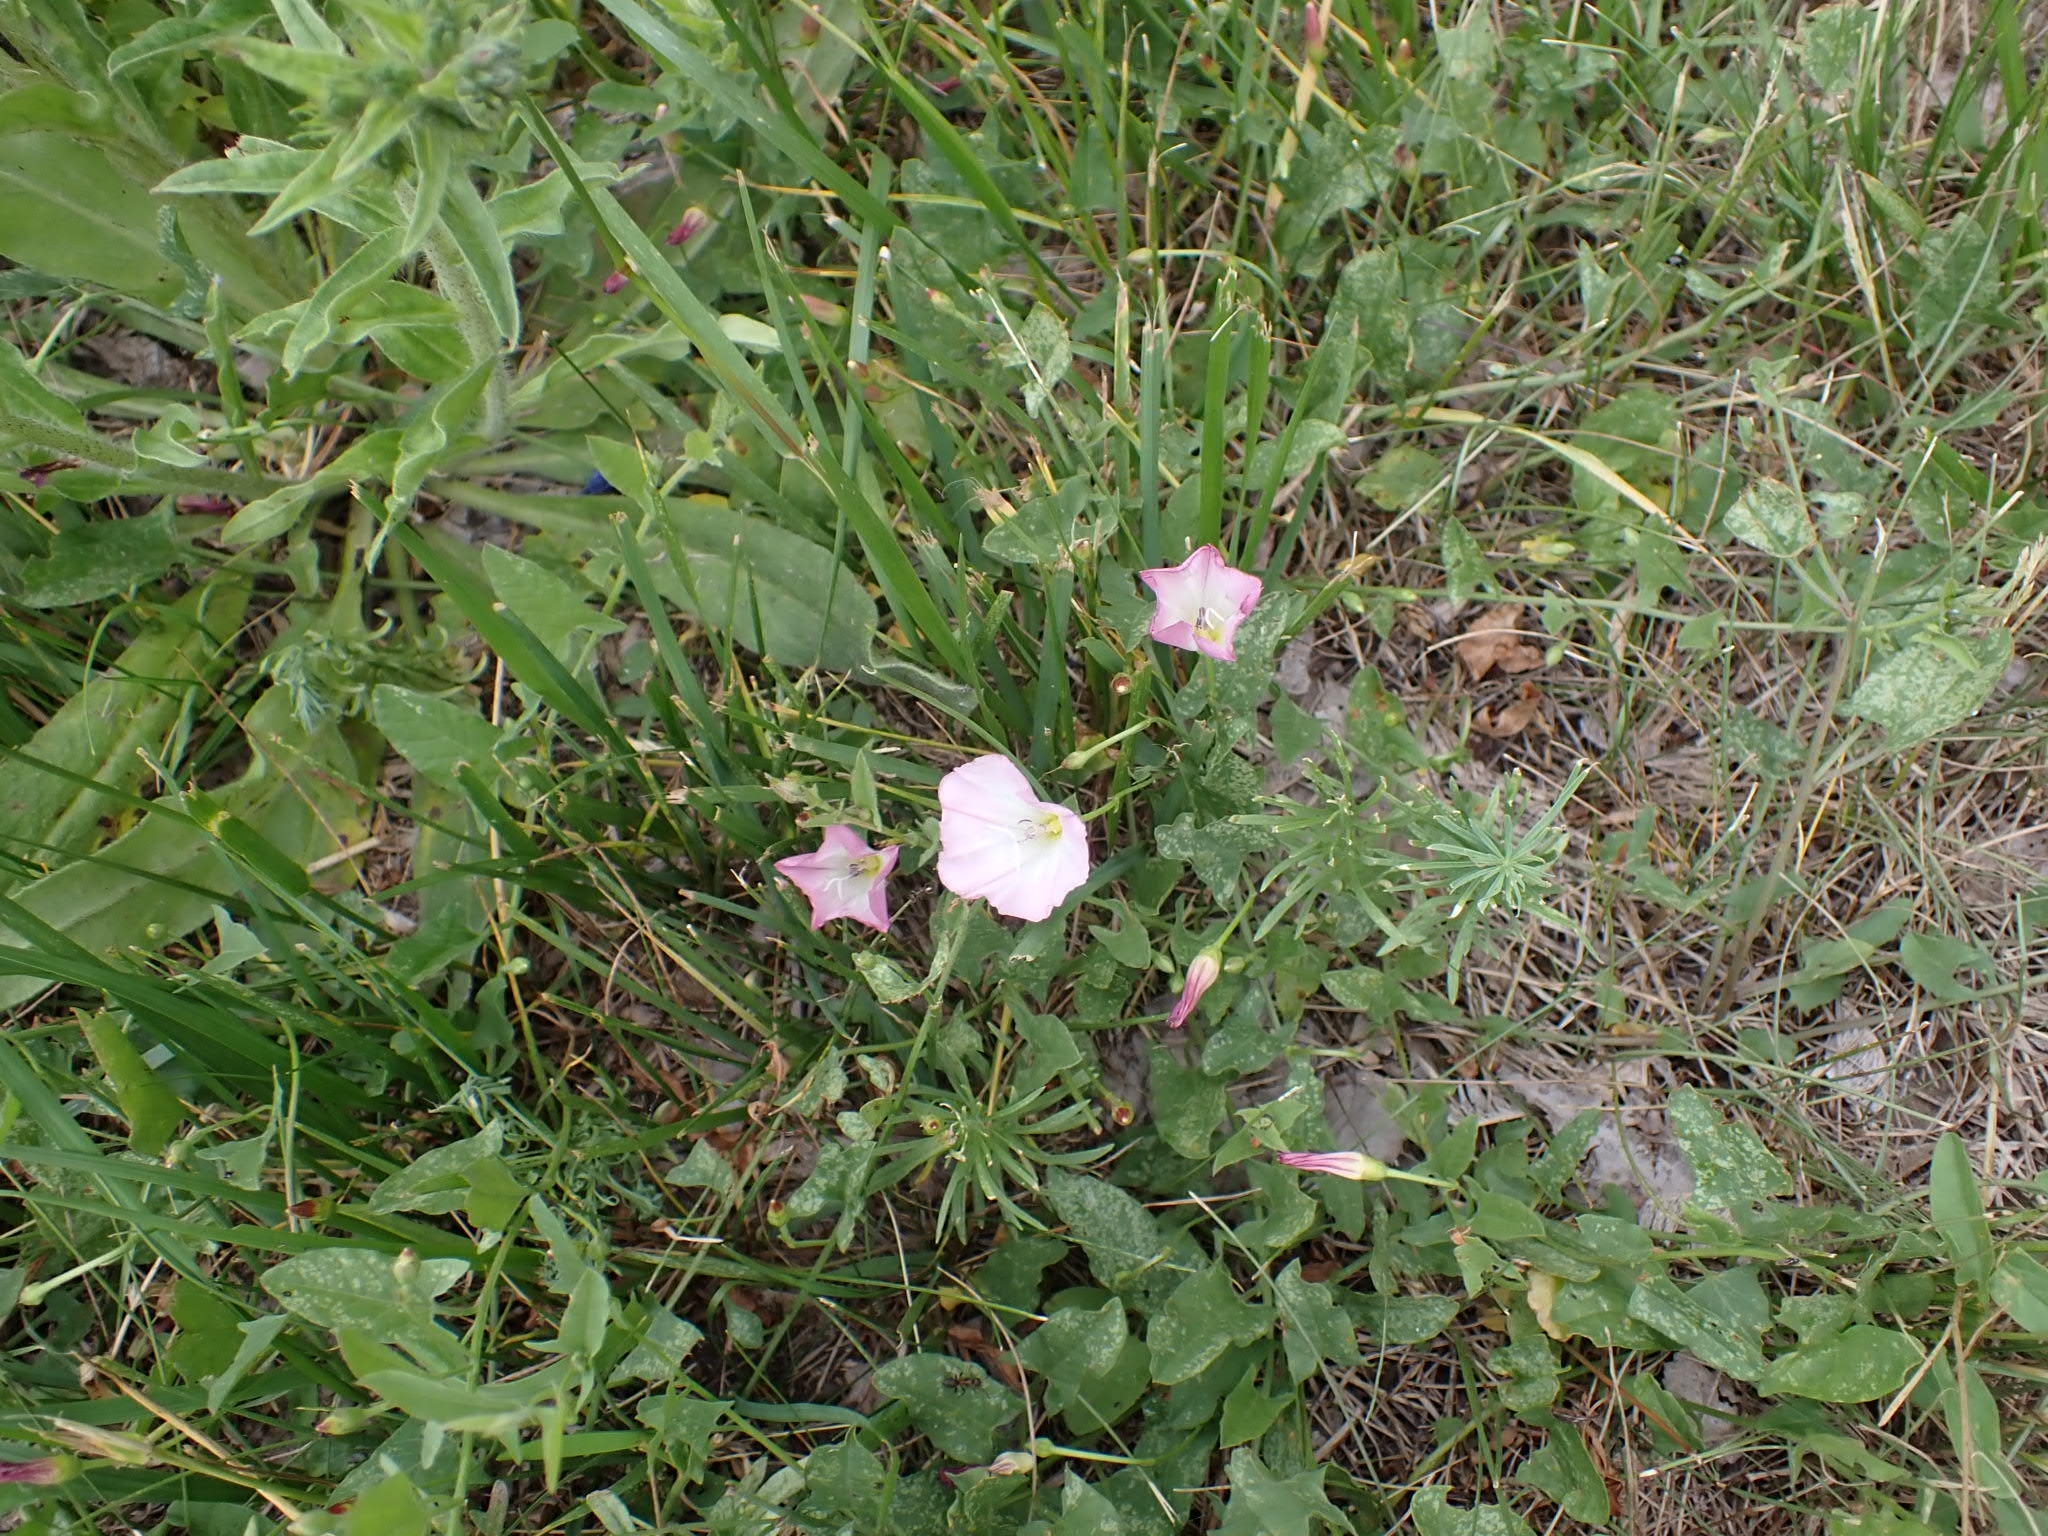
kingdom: Plantae
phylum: Tracheophyta
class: Magnoliopsida
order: Solanales
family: Convolvulaceae
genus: Convolvulus
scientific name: Convolvulus arvensis
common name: Field bindweed
